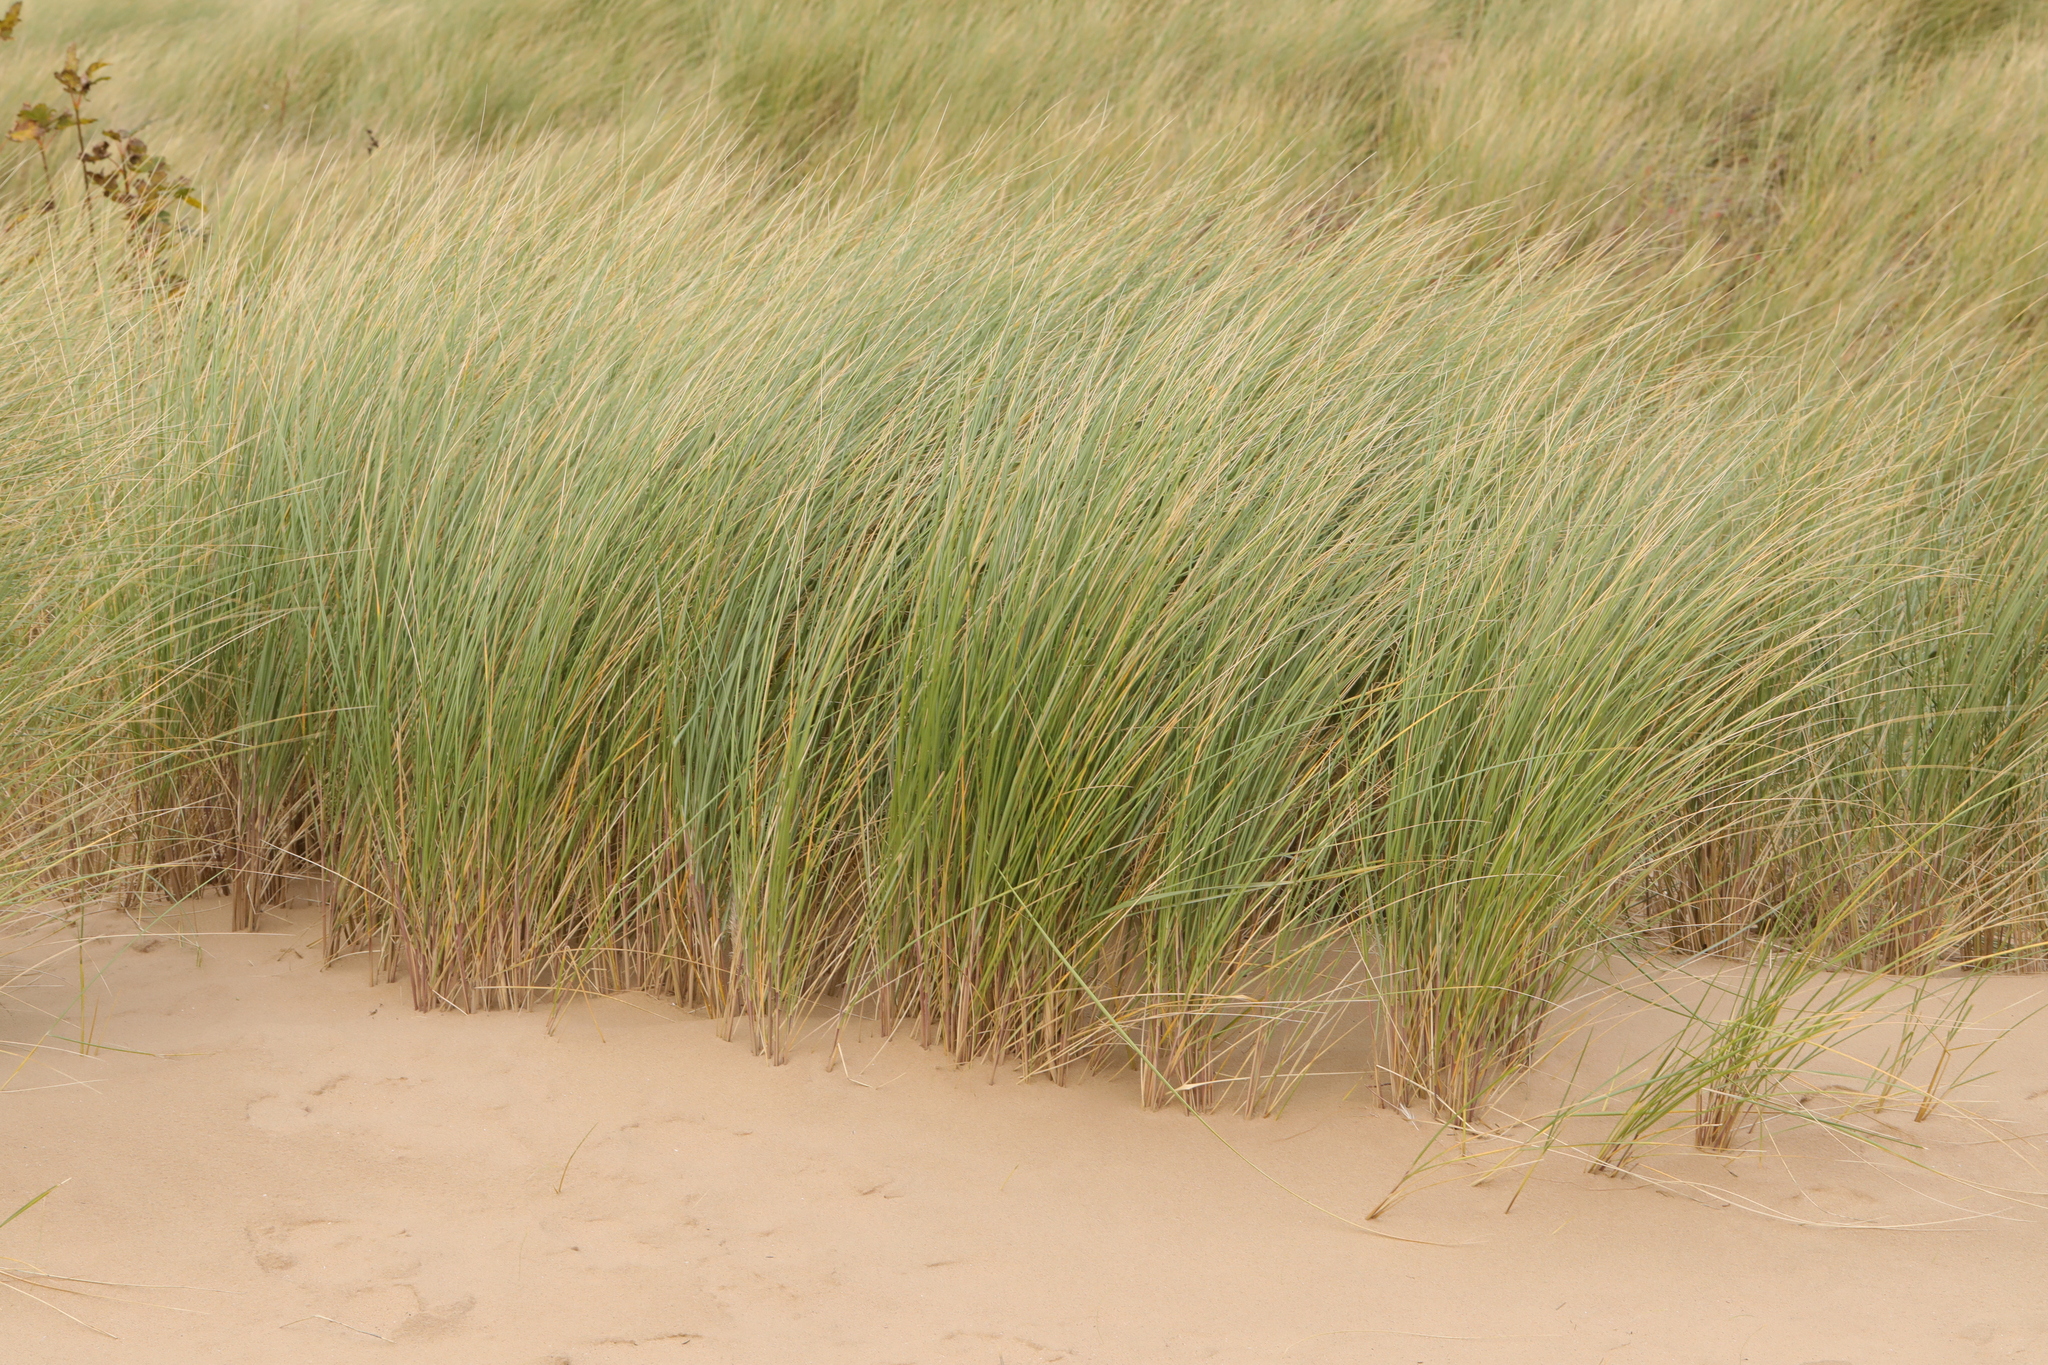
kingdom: Plantae
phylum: Tracheophyta
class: Liliopsida
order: Poales
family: Poaceae
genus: Calamagrostis
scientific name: Calamagrostis arenaria
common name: European beachgrass
